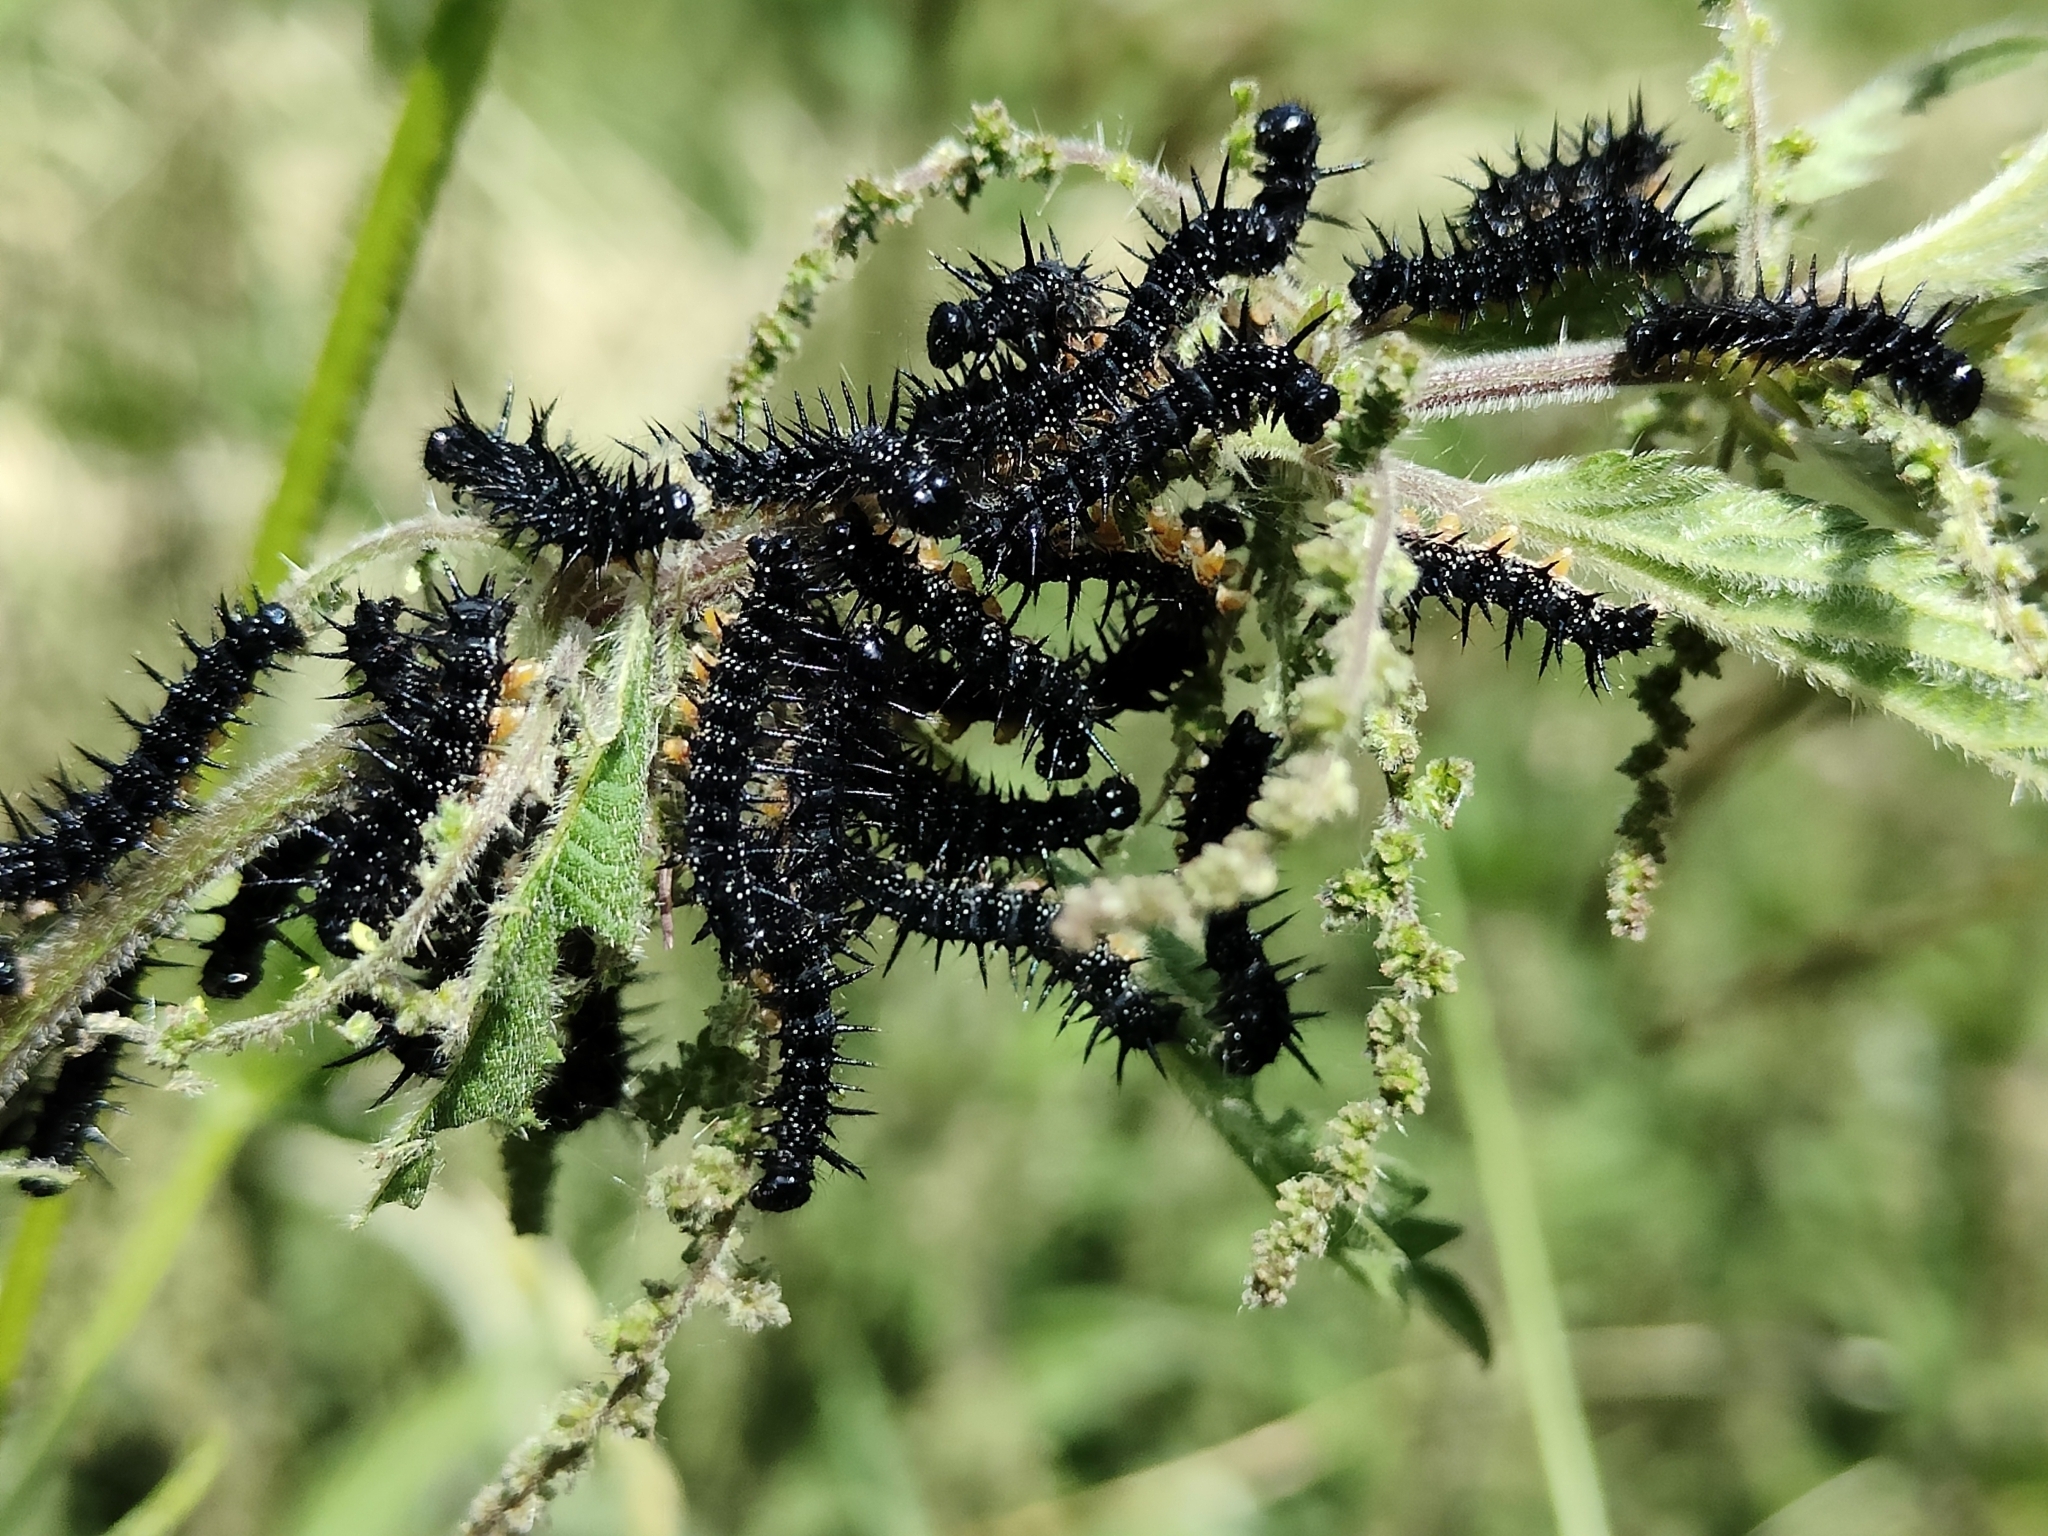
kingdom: Animalia
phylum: Arthropoda
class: Insecta
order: Lepidoptera
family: Nymphalidae
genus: Aglais
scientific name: Aglais io
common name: Peacock
